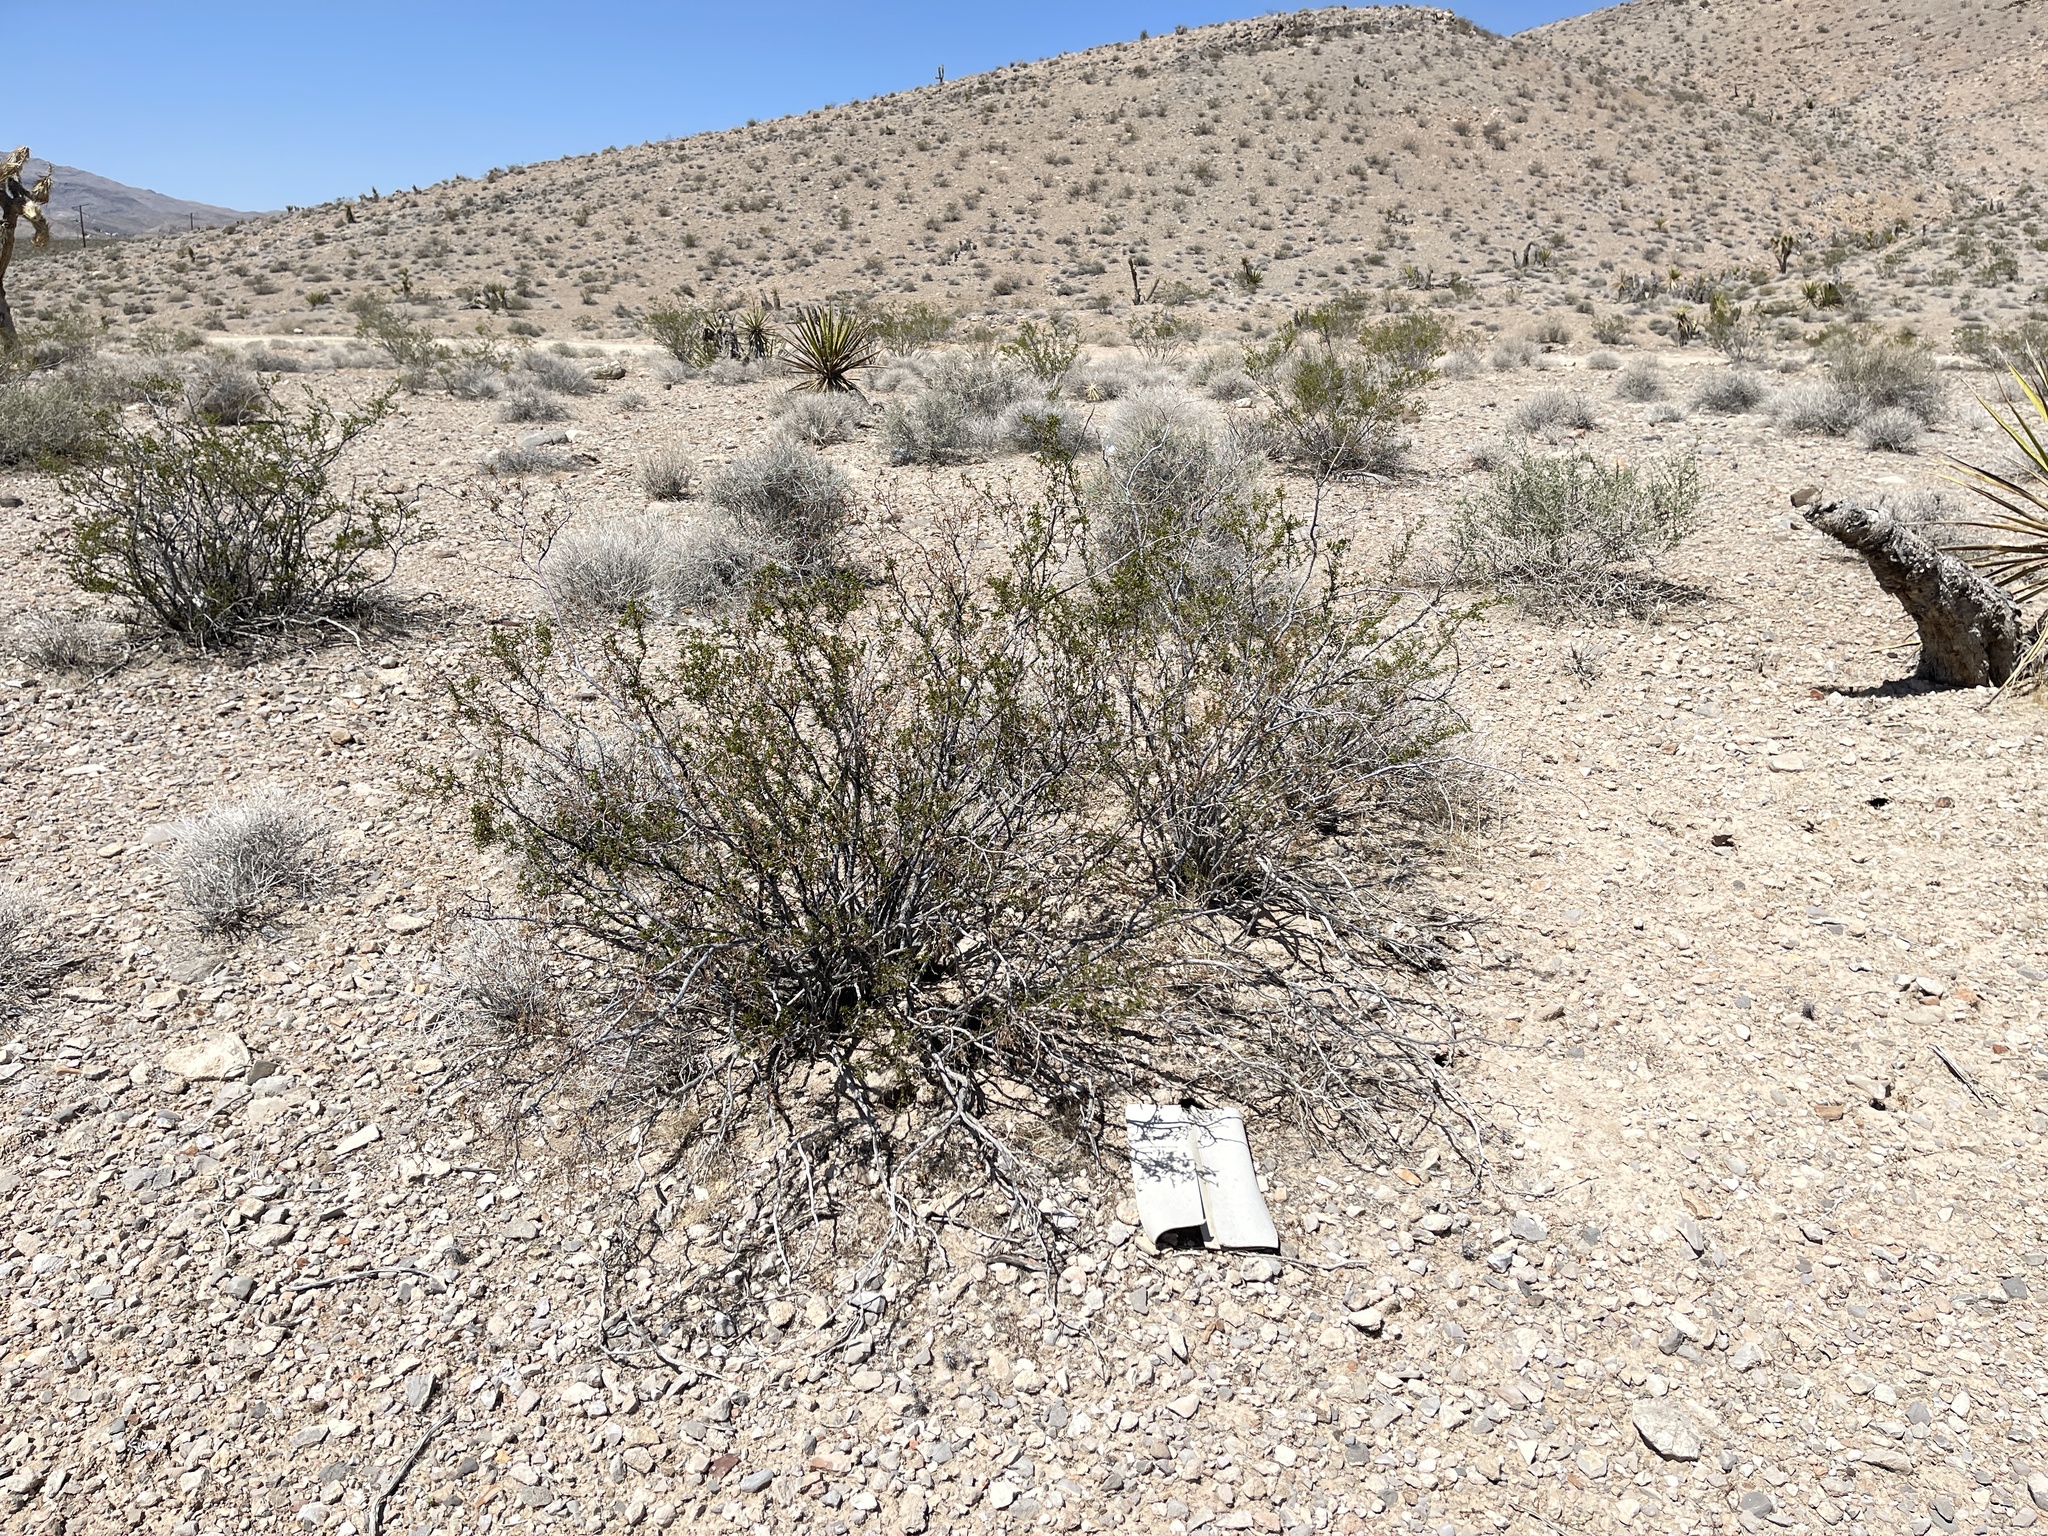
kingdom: Plantae
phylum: Tracheophyta
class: Magnoliopsida
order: Zygophyllales
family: Zygophyllaceae
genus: Larrea
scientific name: Larrea tridentata
